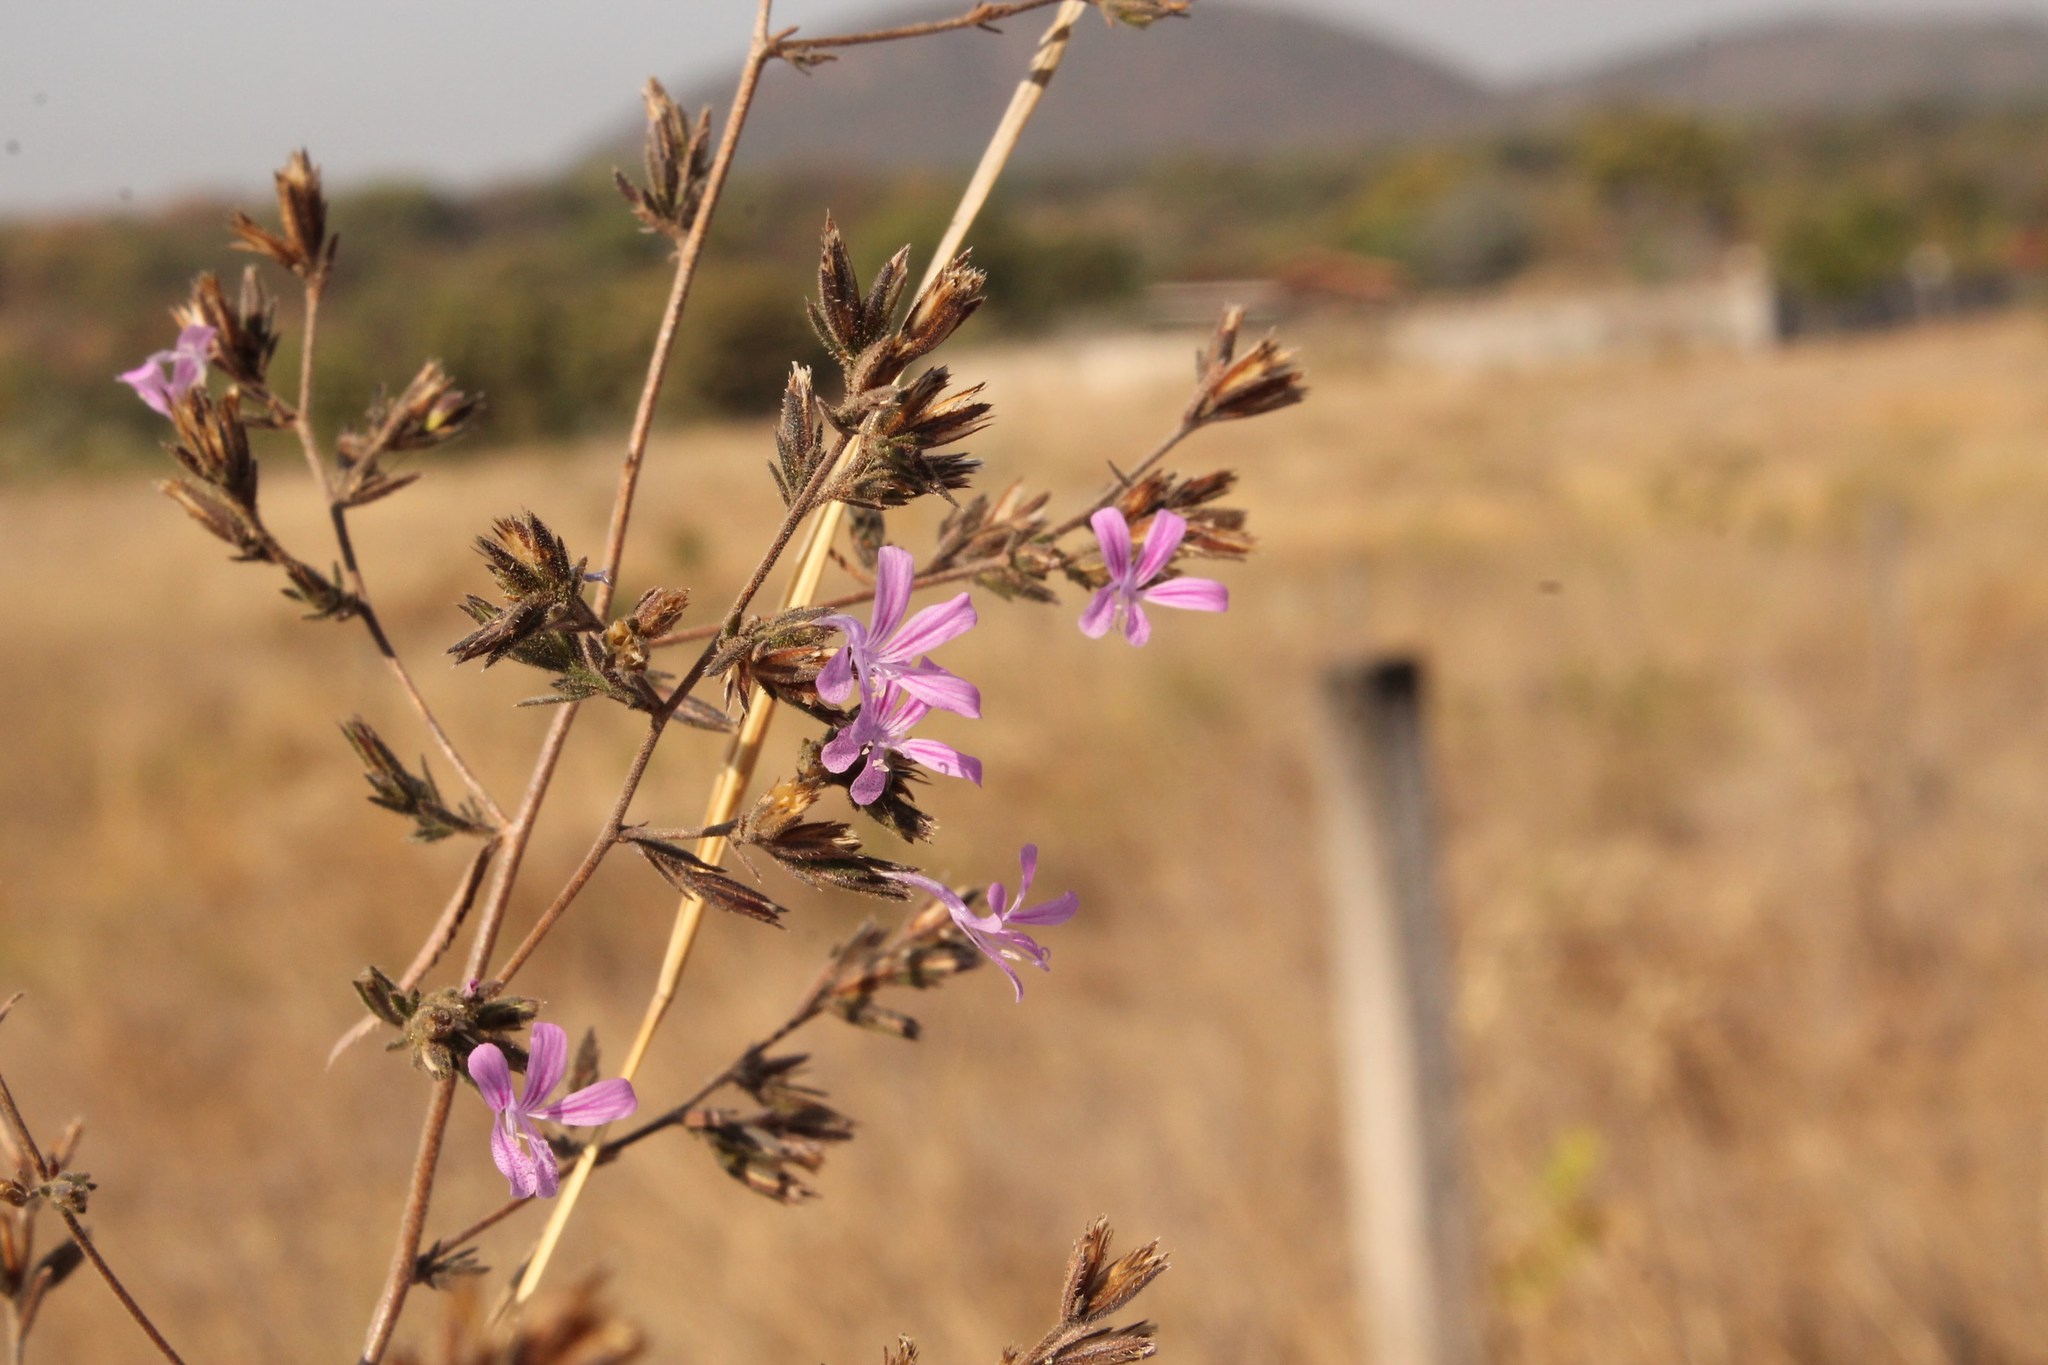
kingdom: Plantae
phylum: Tracheophyta
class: Magnoliopsida
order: Ericales
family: Polemoniaceae
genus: Loeselia
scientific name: Loeselia glandulosa
